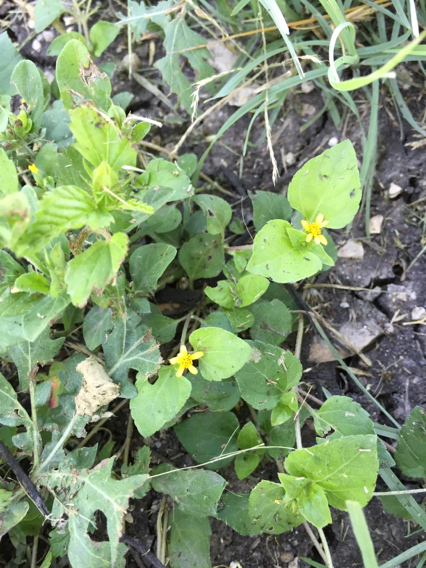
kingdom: Plantae
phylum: Tracheophyta
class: Magnoliopsida
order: Asterales
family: Asteraceae
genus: Calyptocarpus
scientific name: Calyptocarpus vialis
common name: Straggler daisy
